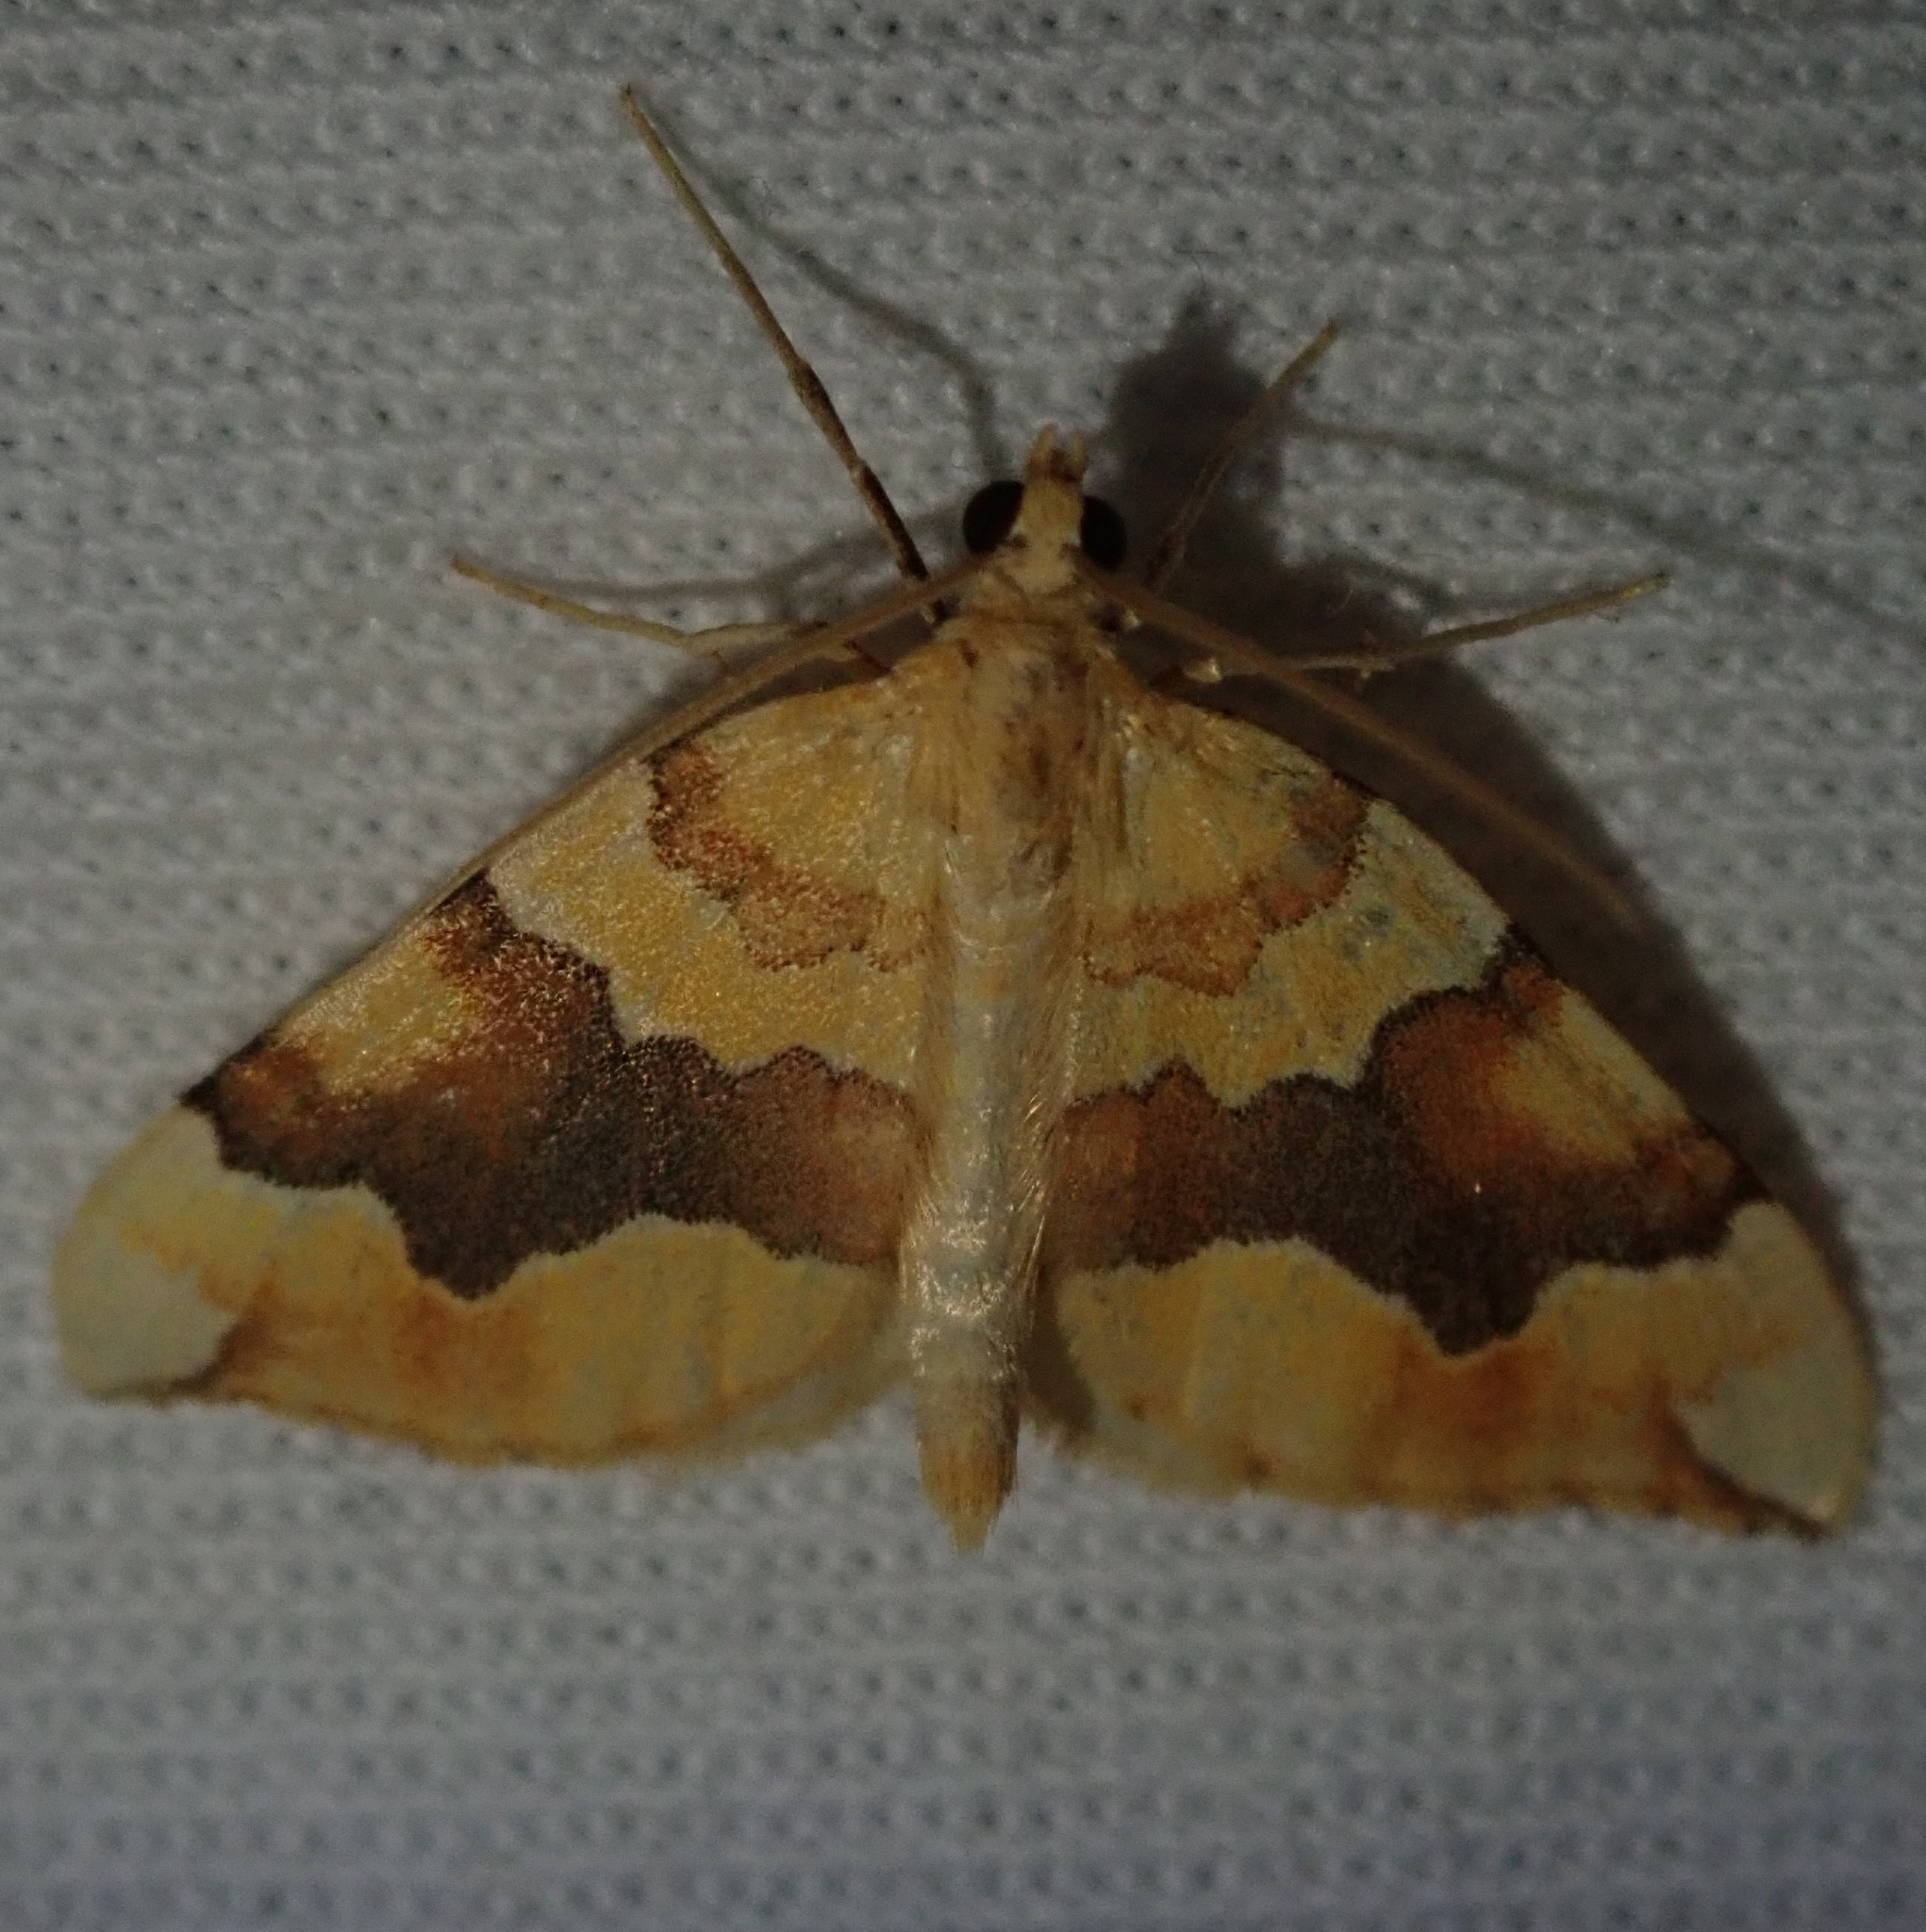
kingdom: Animalia
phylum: Arthropoda
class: Insecta
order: Lepidoptera
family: Geometridae
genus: Cidaria
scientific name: Cidaria fulvata
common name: Barred yellow
